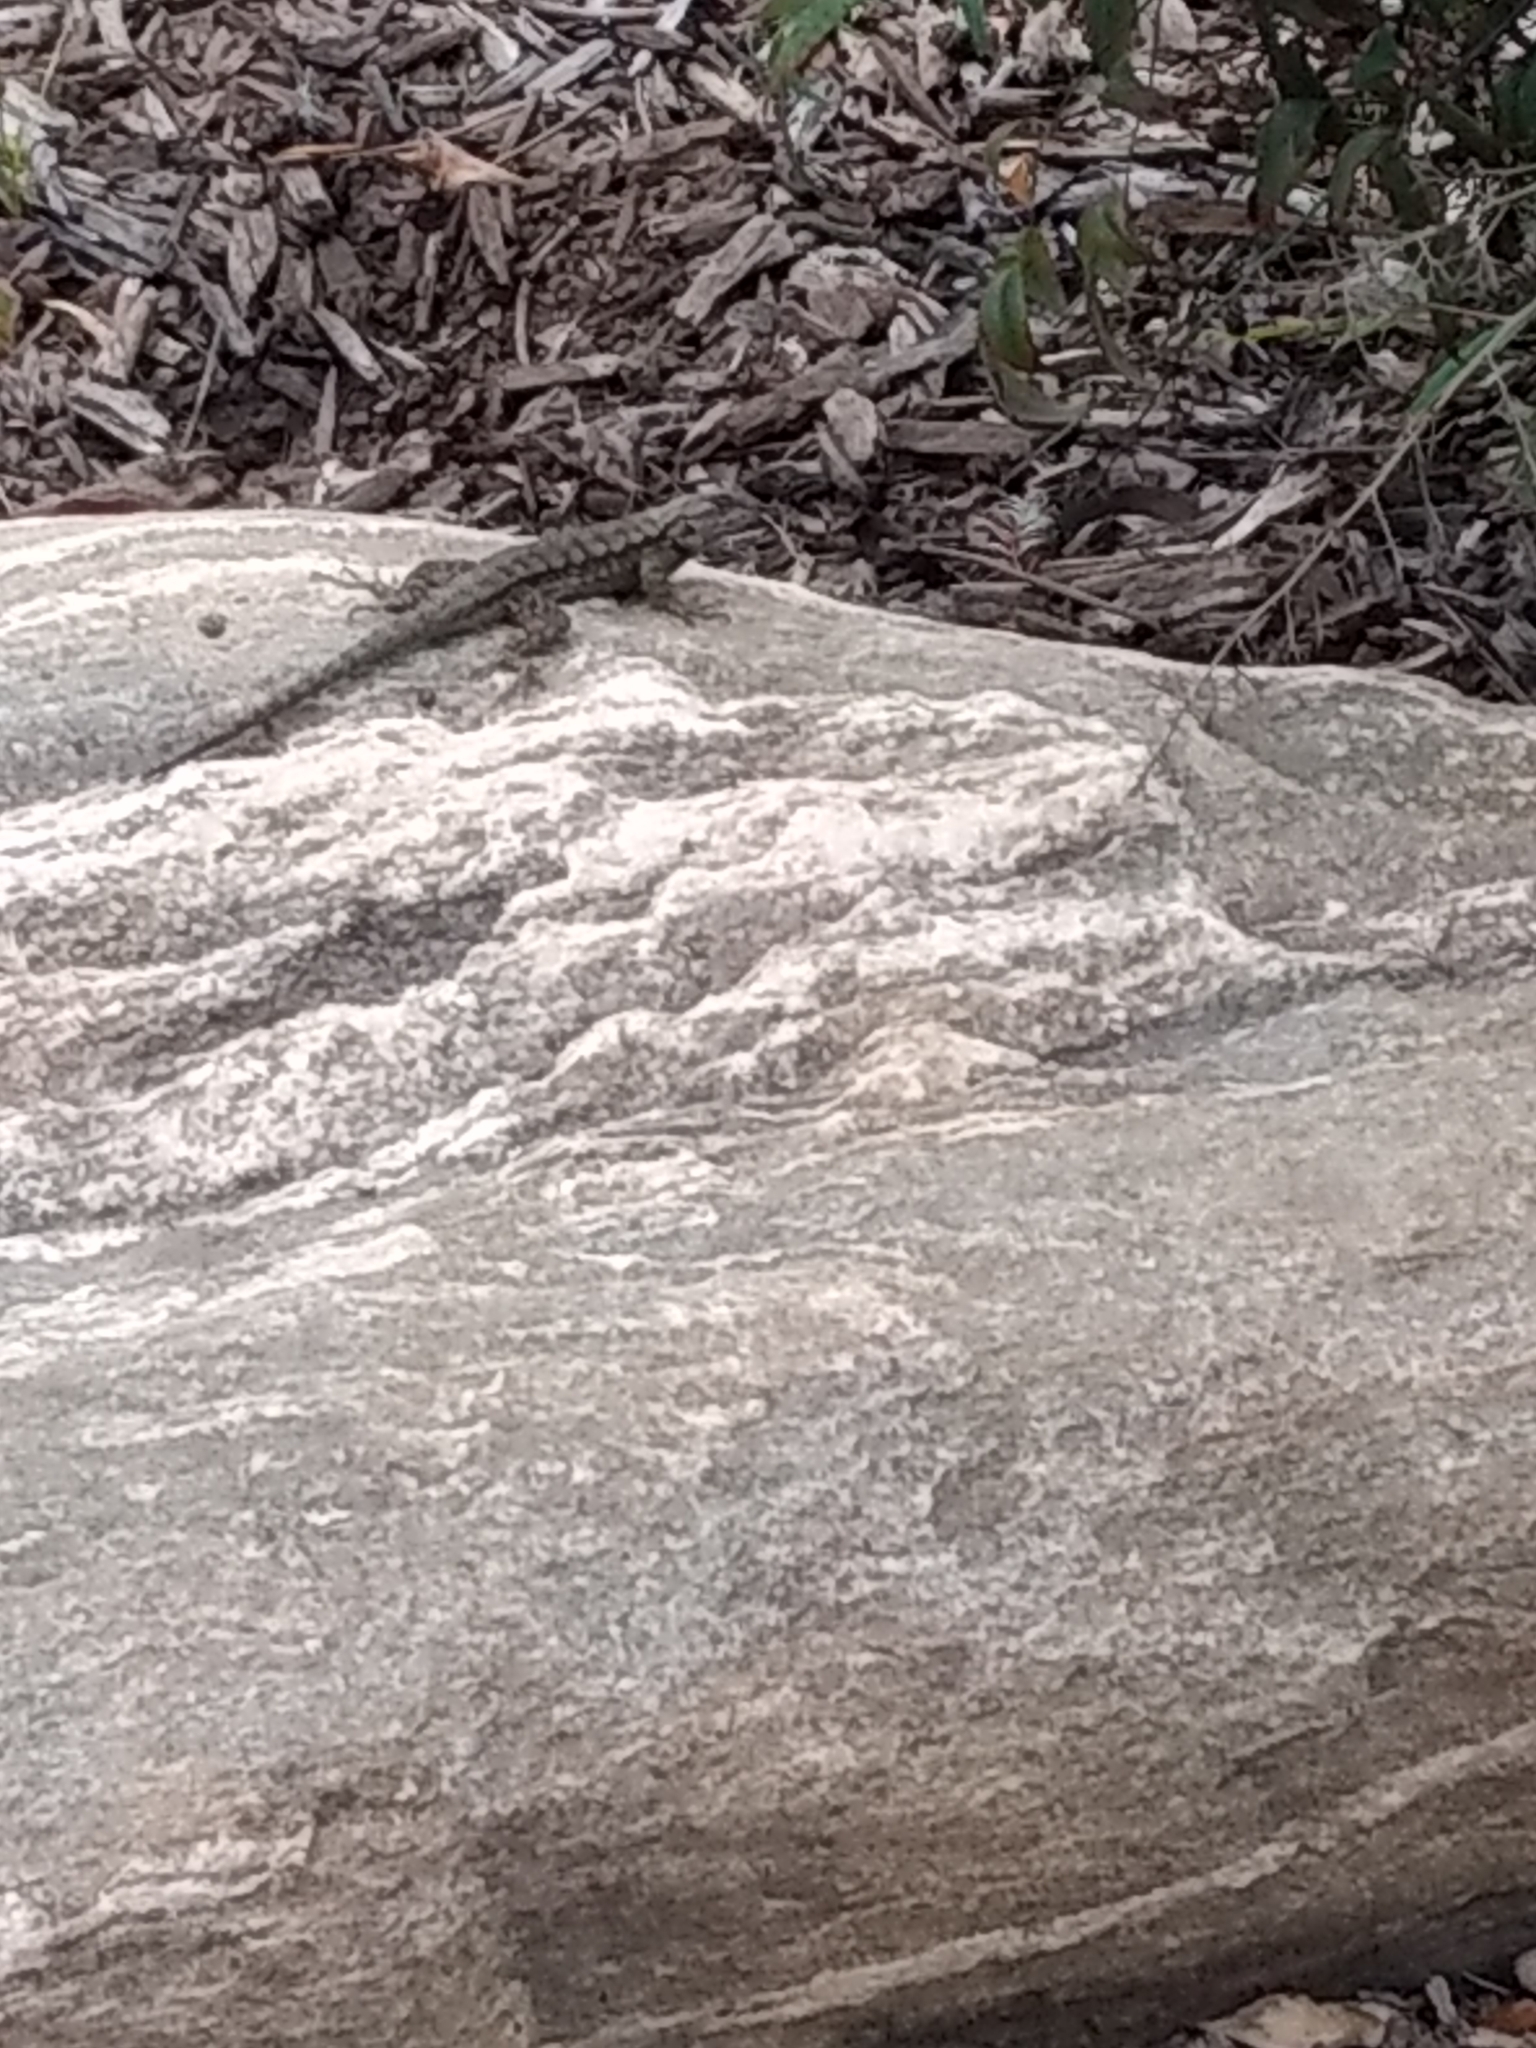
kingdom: Animalia
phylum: Chordata
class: Squamata
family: Phrynosomatidae
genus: Sceloporus
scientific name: Sceloporus occidentalis
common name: Western fence lizard
